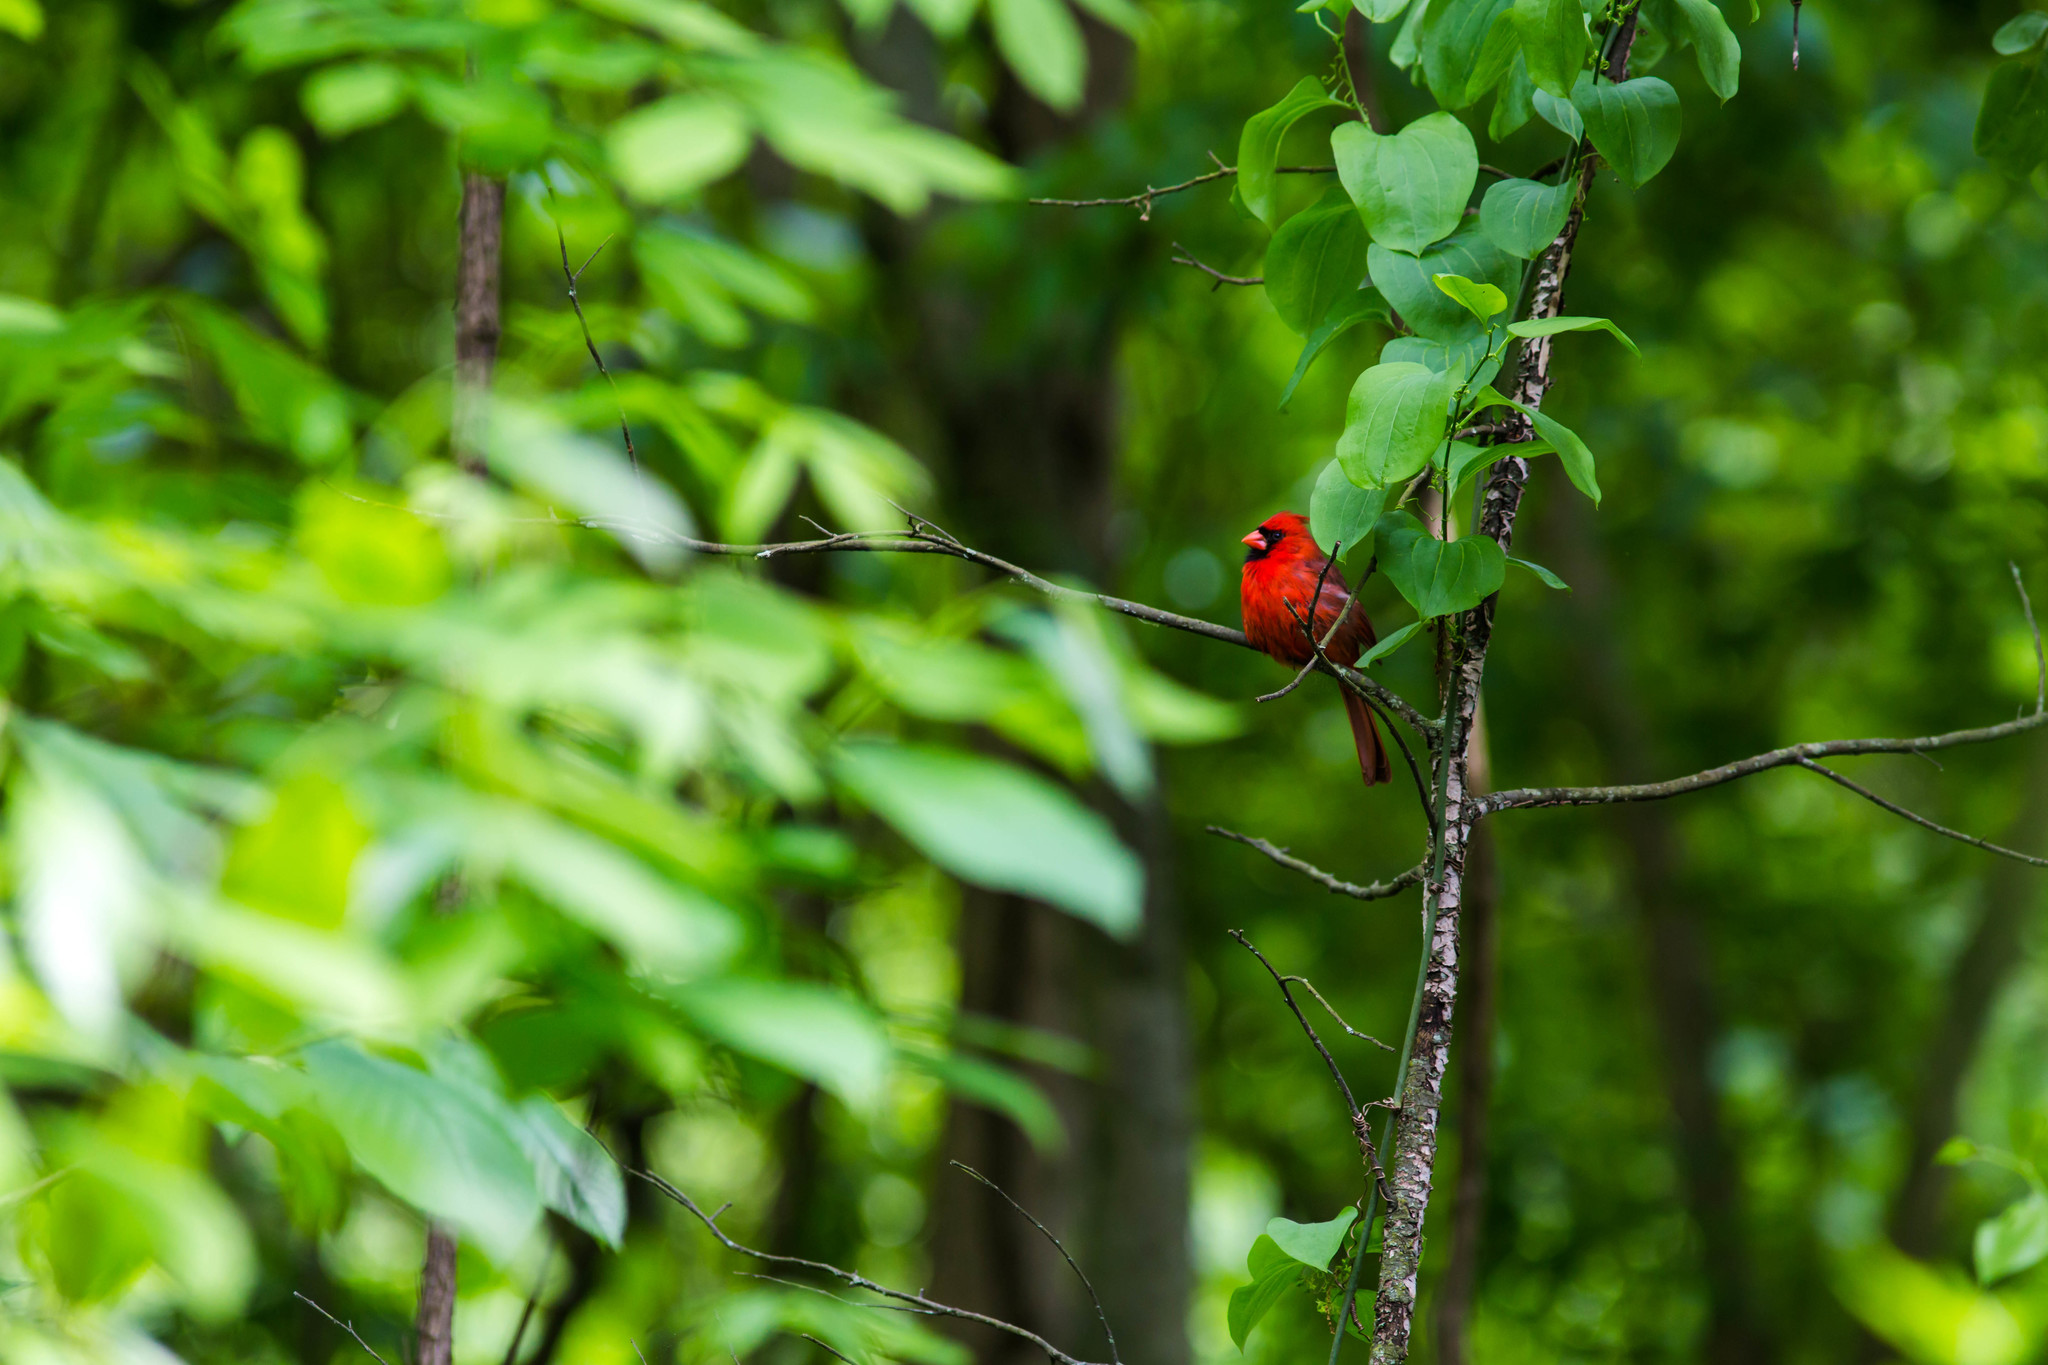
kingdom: Animalia
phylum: Chordata
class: Aves
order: Passeriformes
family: Cardinalidae
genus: Cardinalis
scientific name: Cardinalis cardinalis
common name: Northern cardinal
